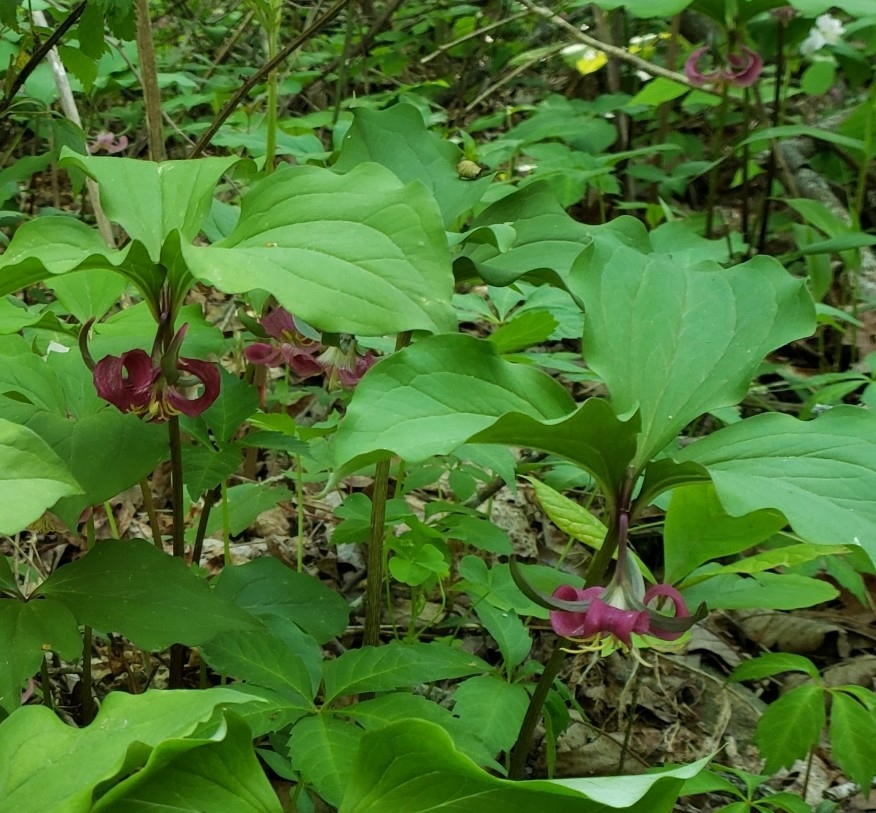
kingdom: Plantae
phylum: Tracheophyta
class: Liliopsida
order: Liliales
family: Melanthiaceae
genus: Trillium
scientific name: Trillium catesbaei
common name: Bashful trillium
